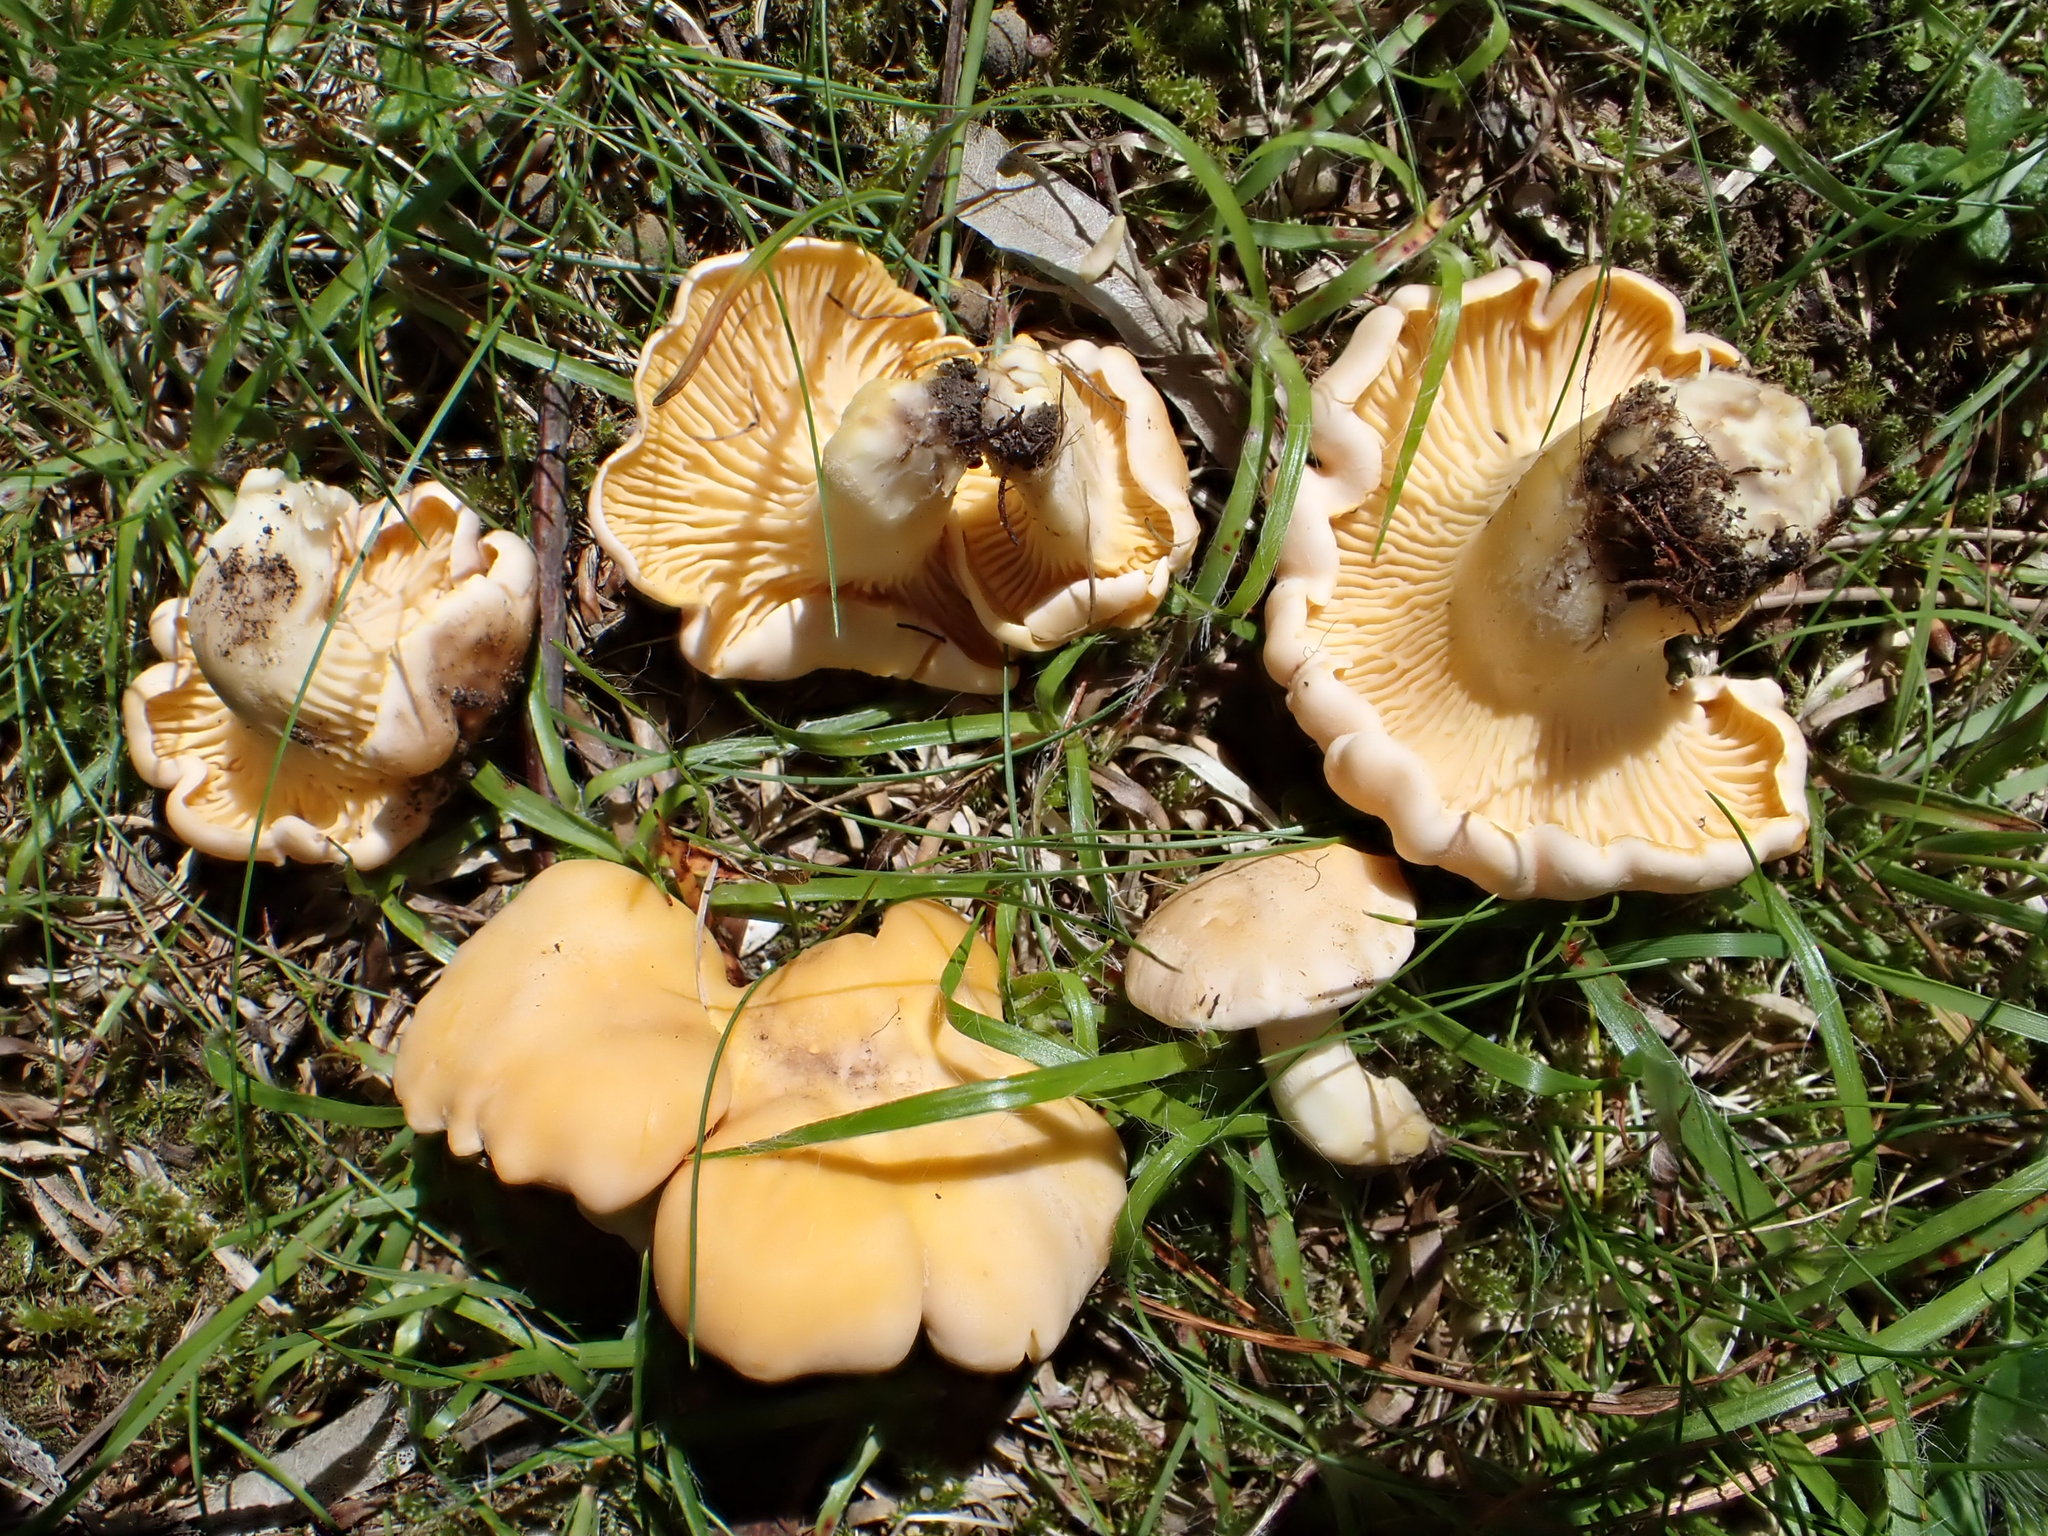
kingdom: Fungi
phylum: Basidiomycota
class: Agaricomycetes
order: Cantharellales
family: Hydnaceae
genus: Cantharellus
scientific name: Cantharellus pallens
